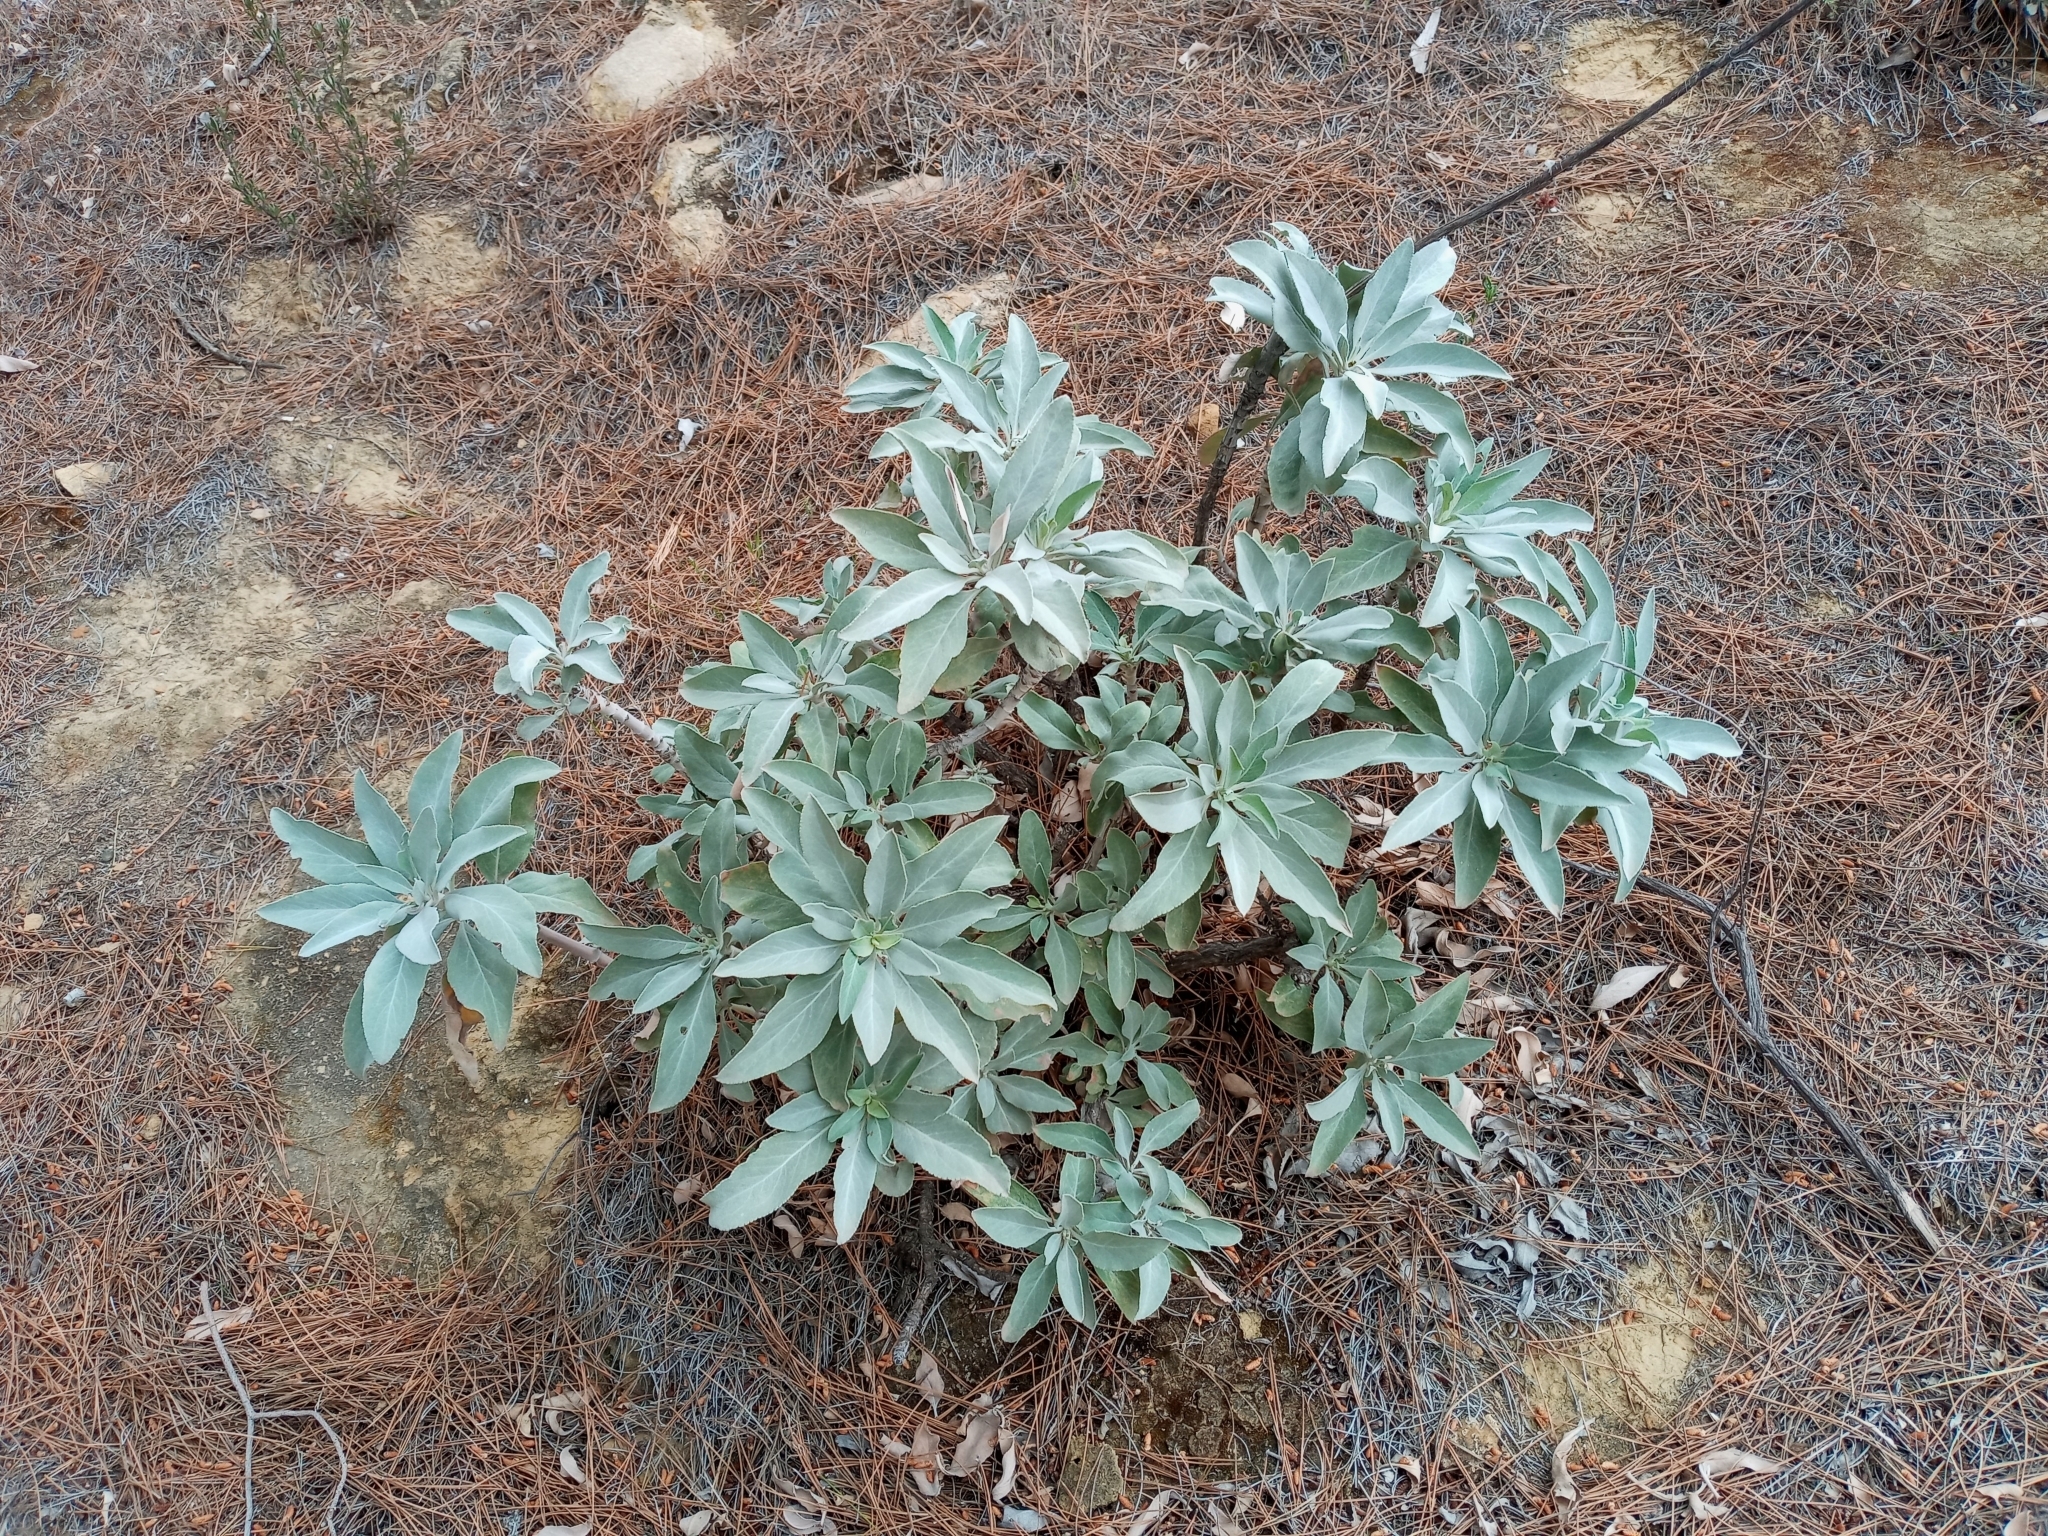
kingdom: Plantae
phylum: Tracheophyta
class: Magnoliopsida
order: Lamiales
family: Lamiaceae
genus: Salvia
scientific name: Salvia apiana
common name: White sage
